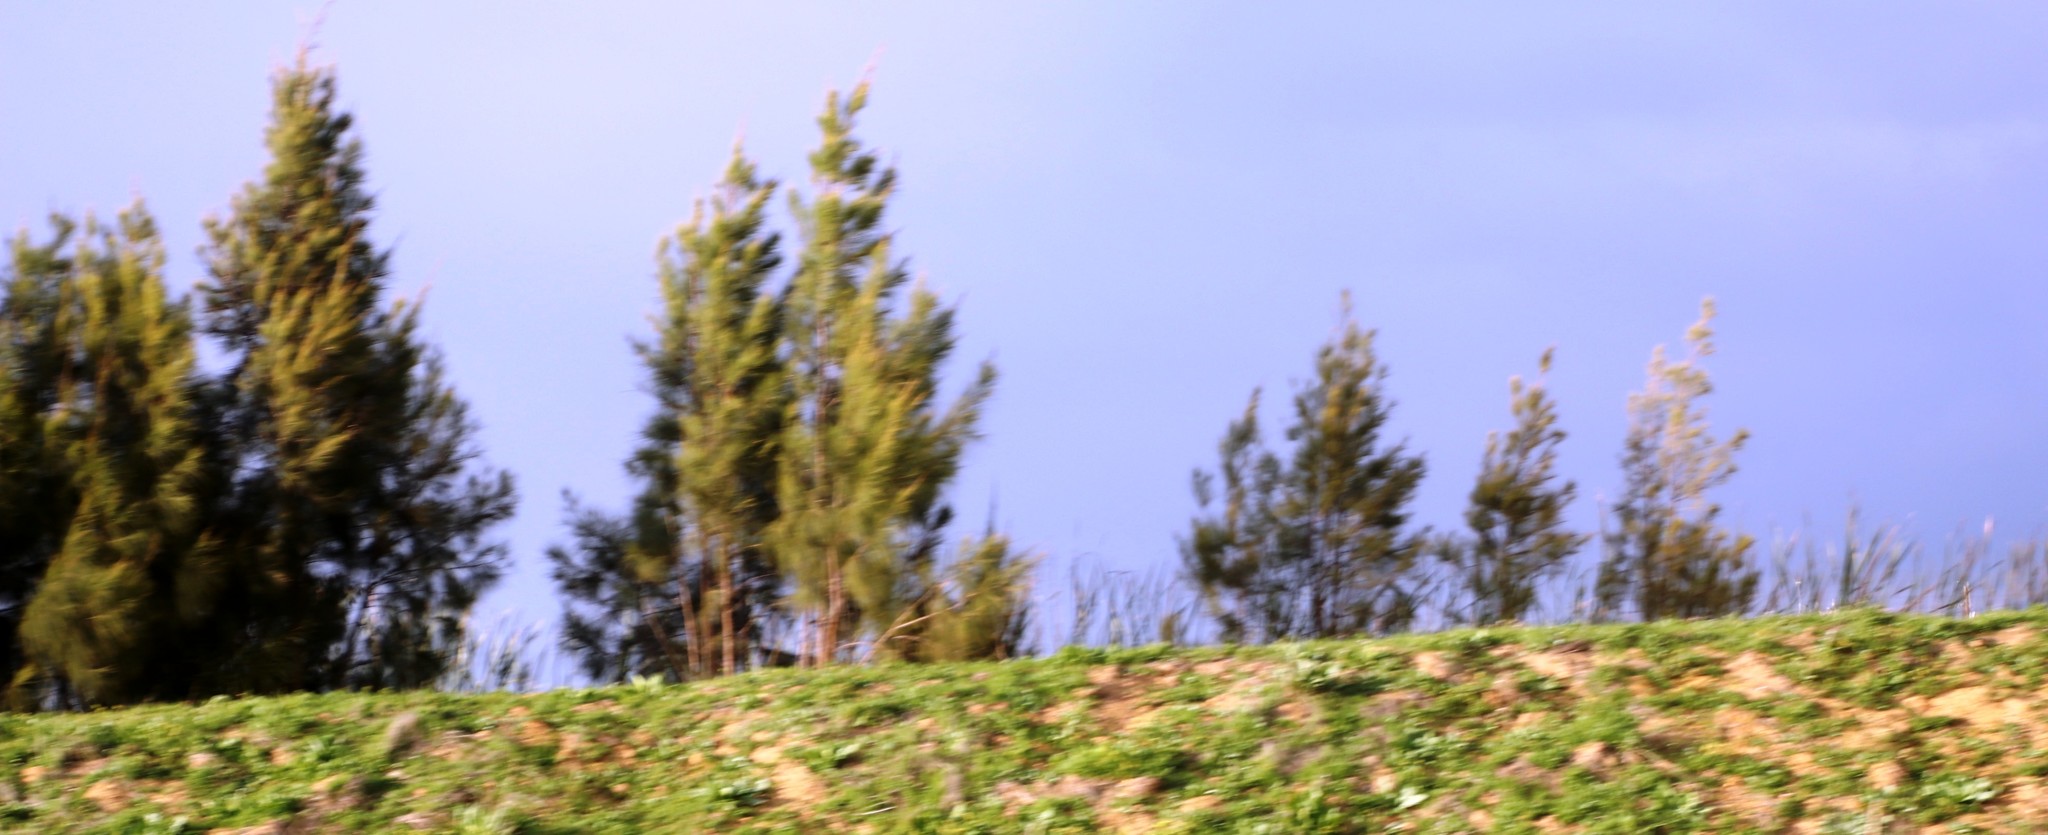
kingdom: Plantae
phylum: Tracheophyta
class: Magnoliopsida
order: Fagales
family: Casuarinaceae
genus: Casuarina
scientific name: Casuarina cunninghamiana
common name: River sheoak
